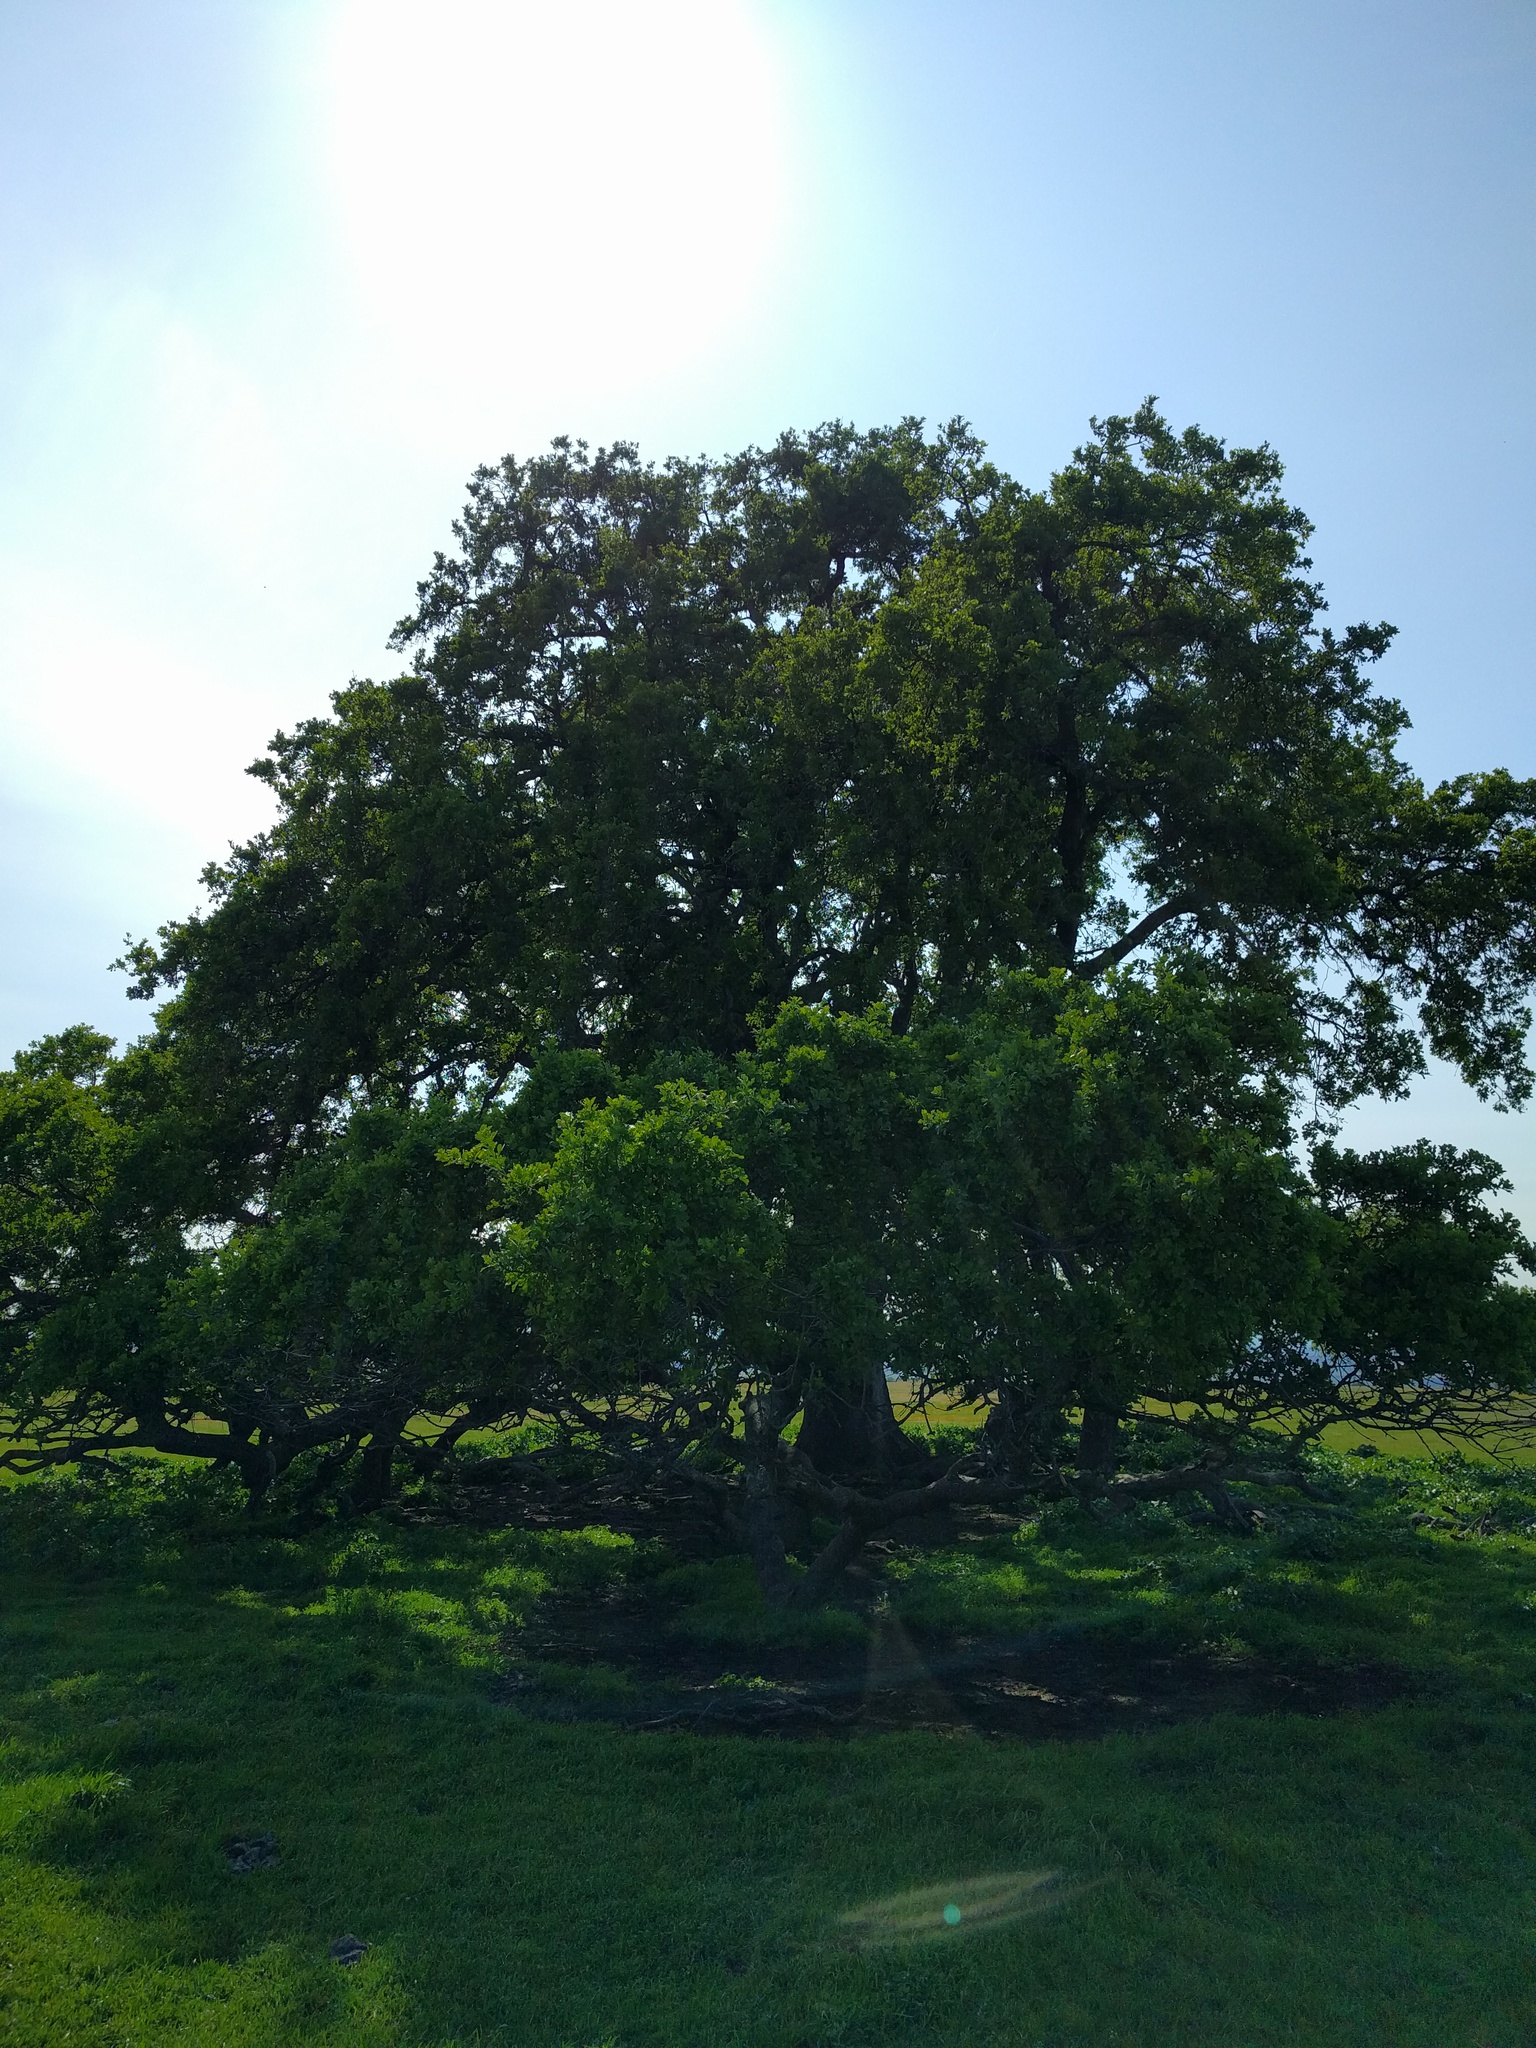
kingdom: Plantae
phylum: Tracheophyta
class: Magnoliopsida
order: Fagales
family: Fagaceae
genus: Quercus
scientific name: Quercus lobata
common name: Valley oak
